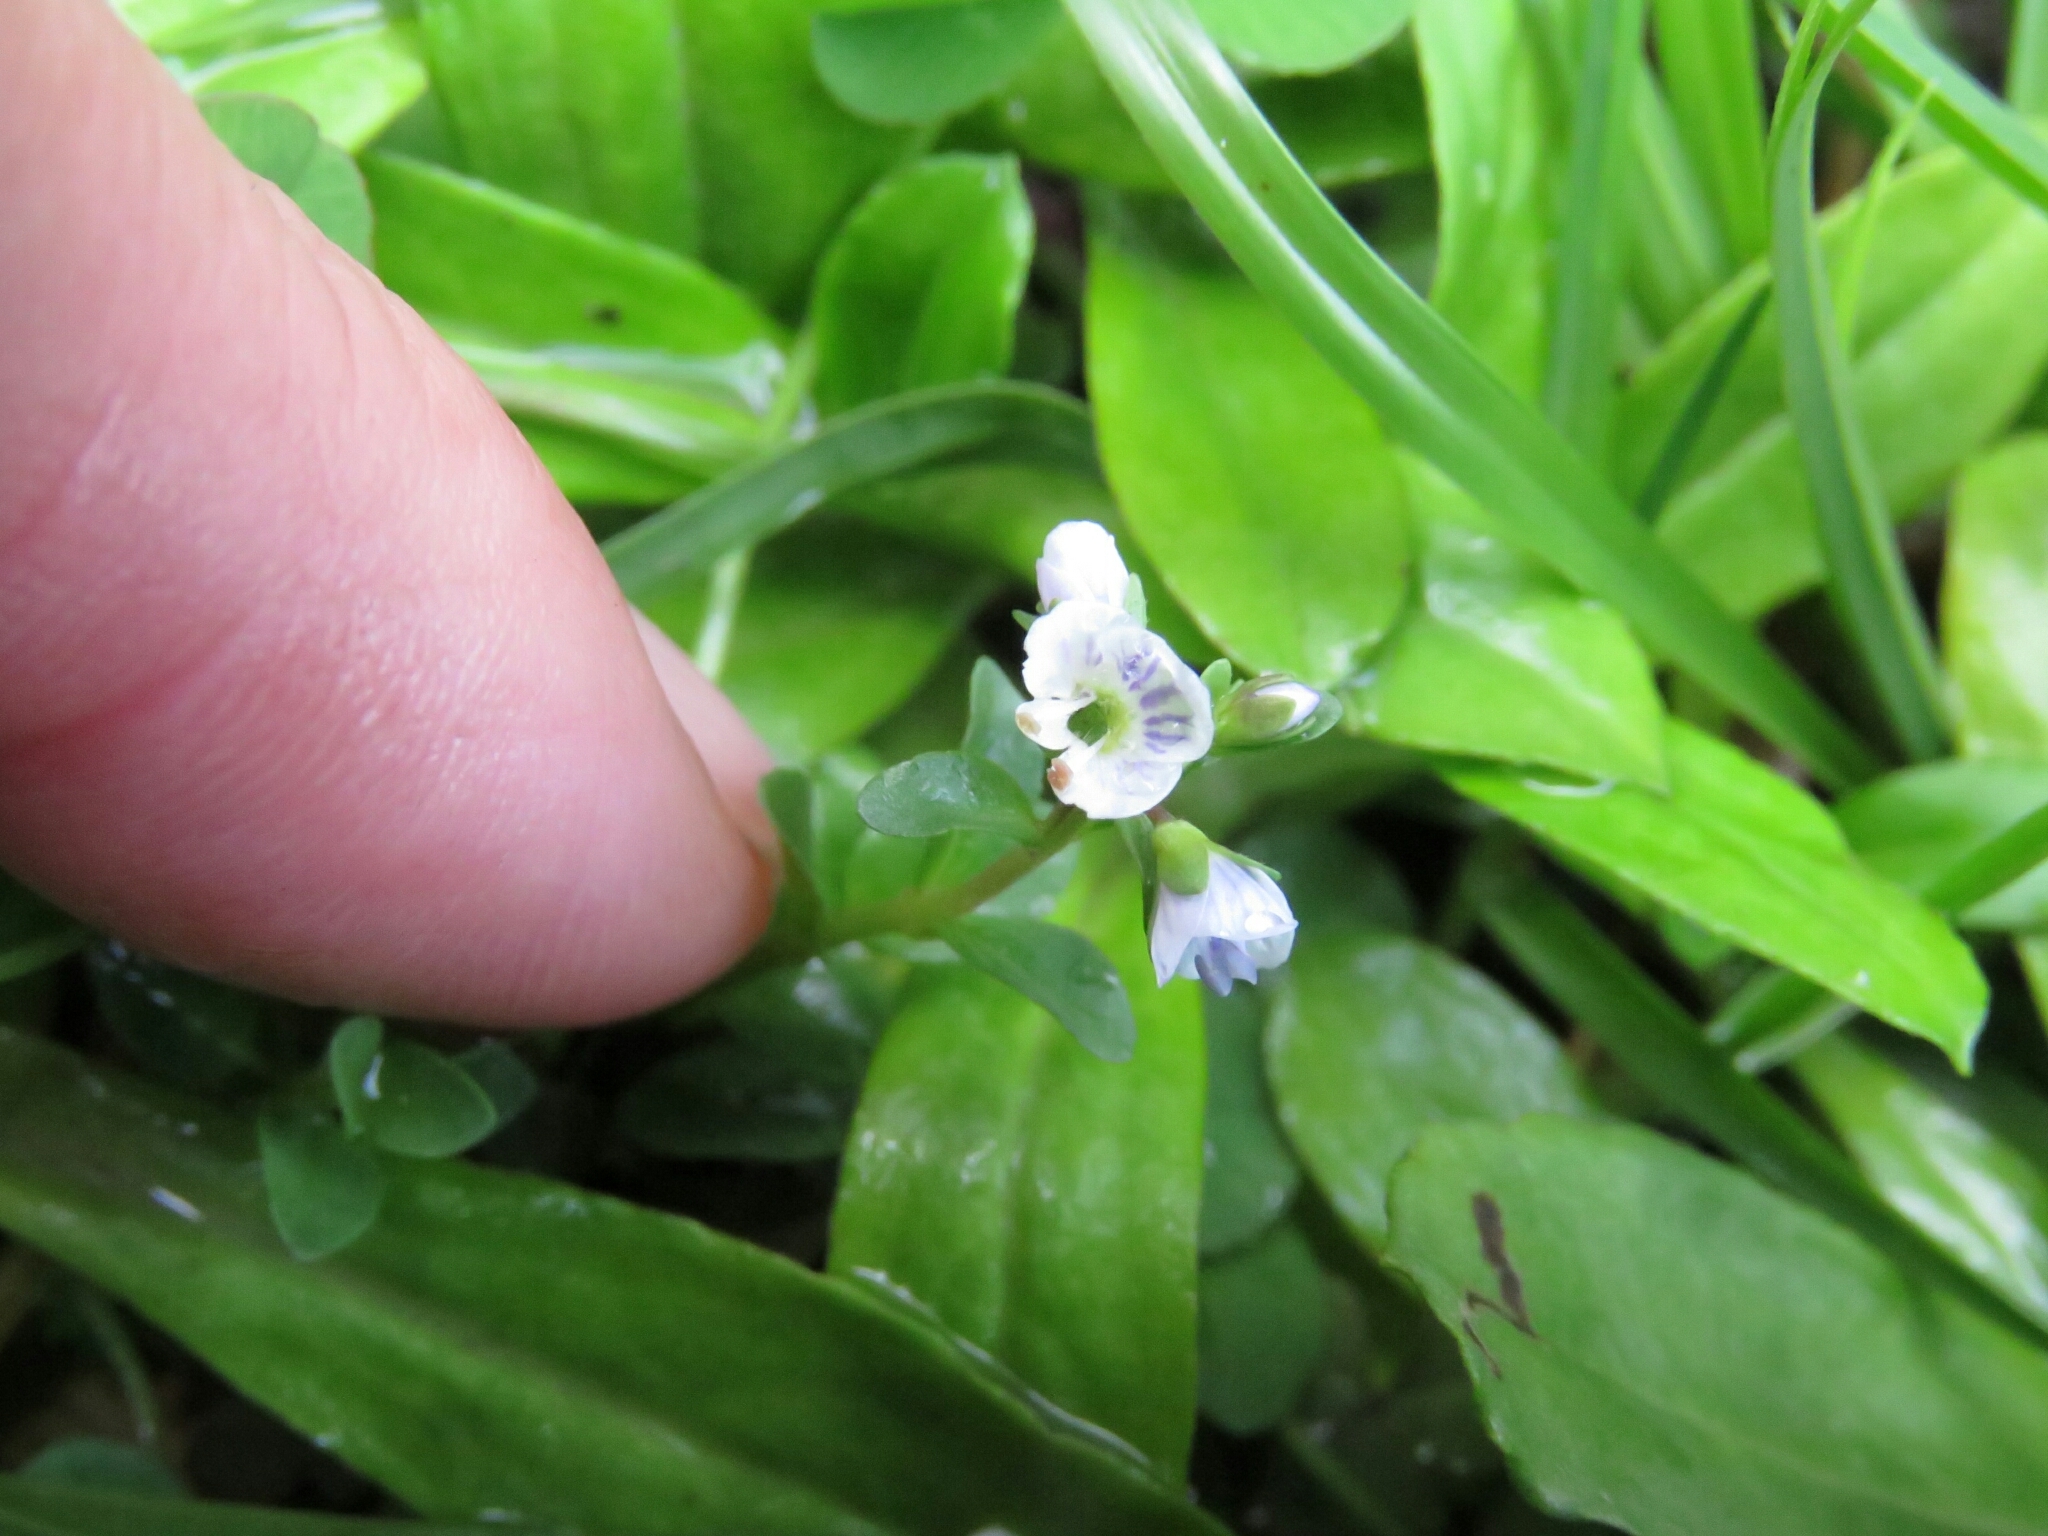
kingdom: Plantae
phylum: Tracheophyta
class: Magnoliopsida
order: Lamiales
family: Plantaginaceae
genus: Veronica
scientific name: Veronica serpyllifolia
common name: Thyme-leaved speedwell
